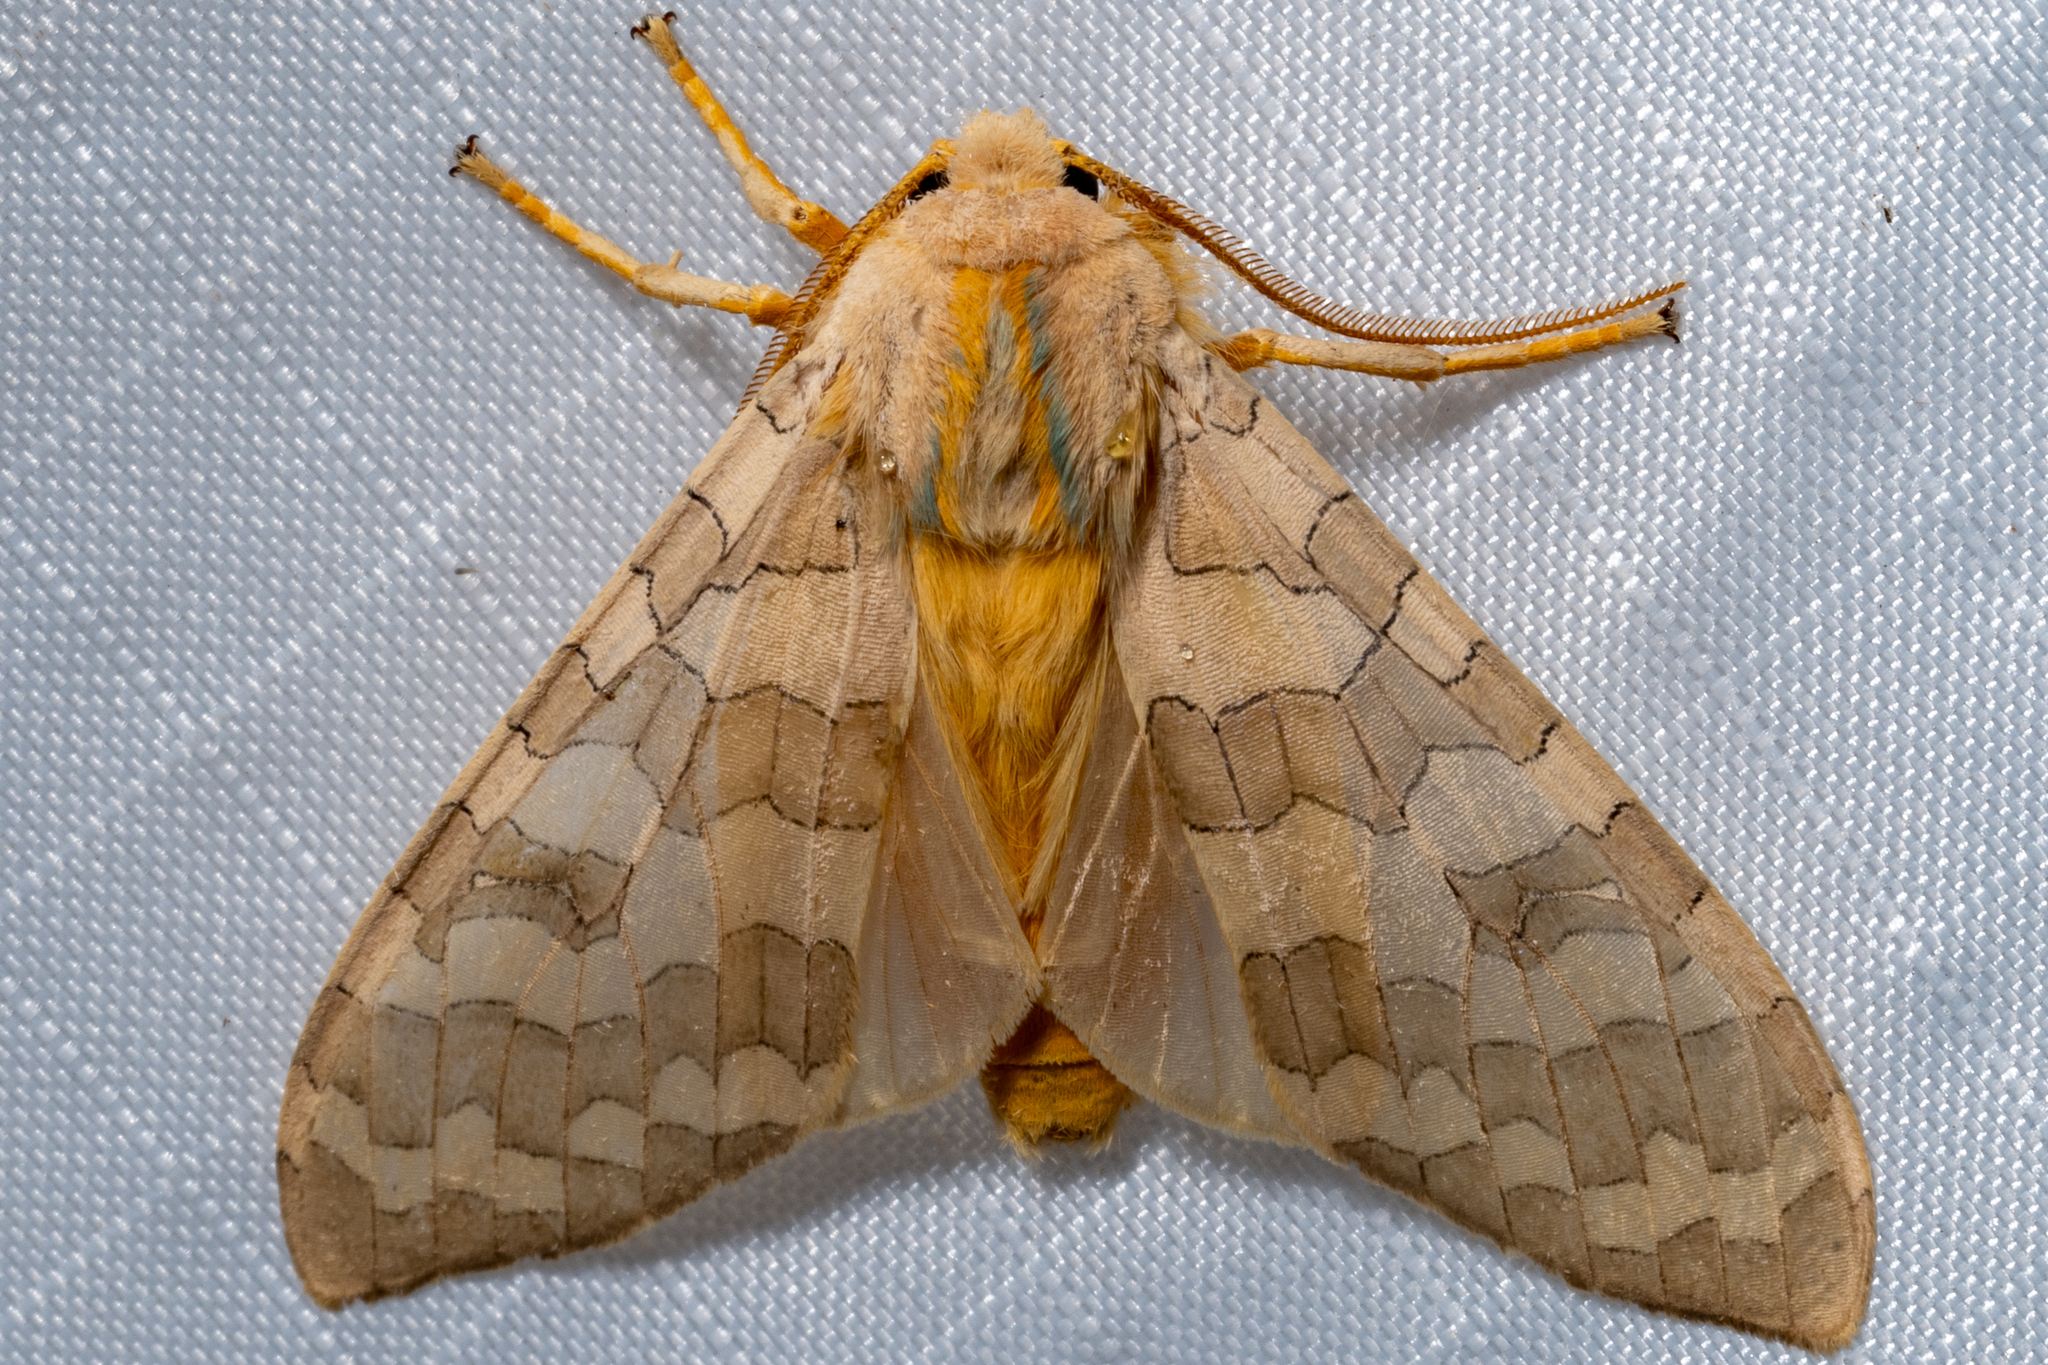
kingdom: Animalia
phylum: Arthropoda
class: Insecta
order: Lepidoptera
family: Erebidae
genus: Halysidota
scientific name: Halysidota
